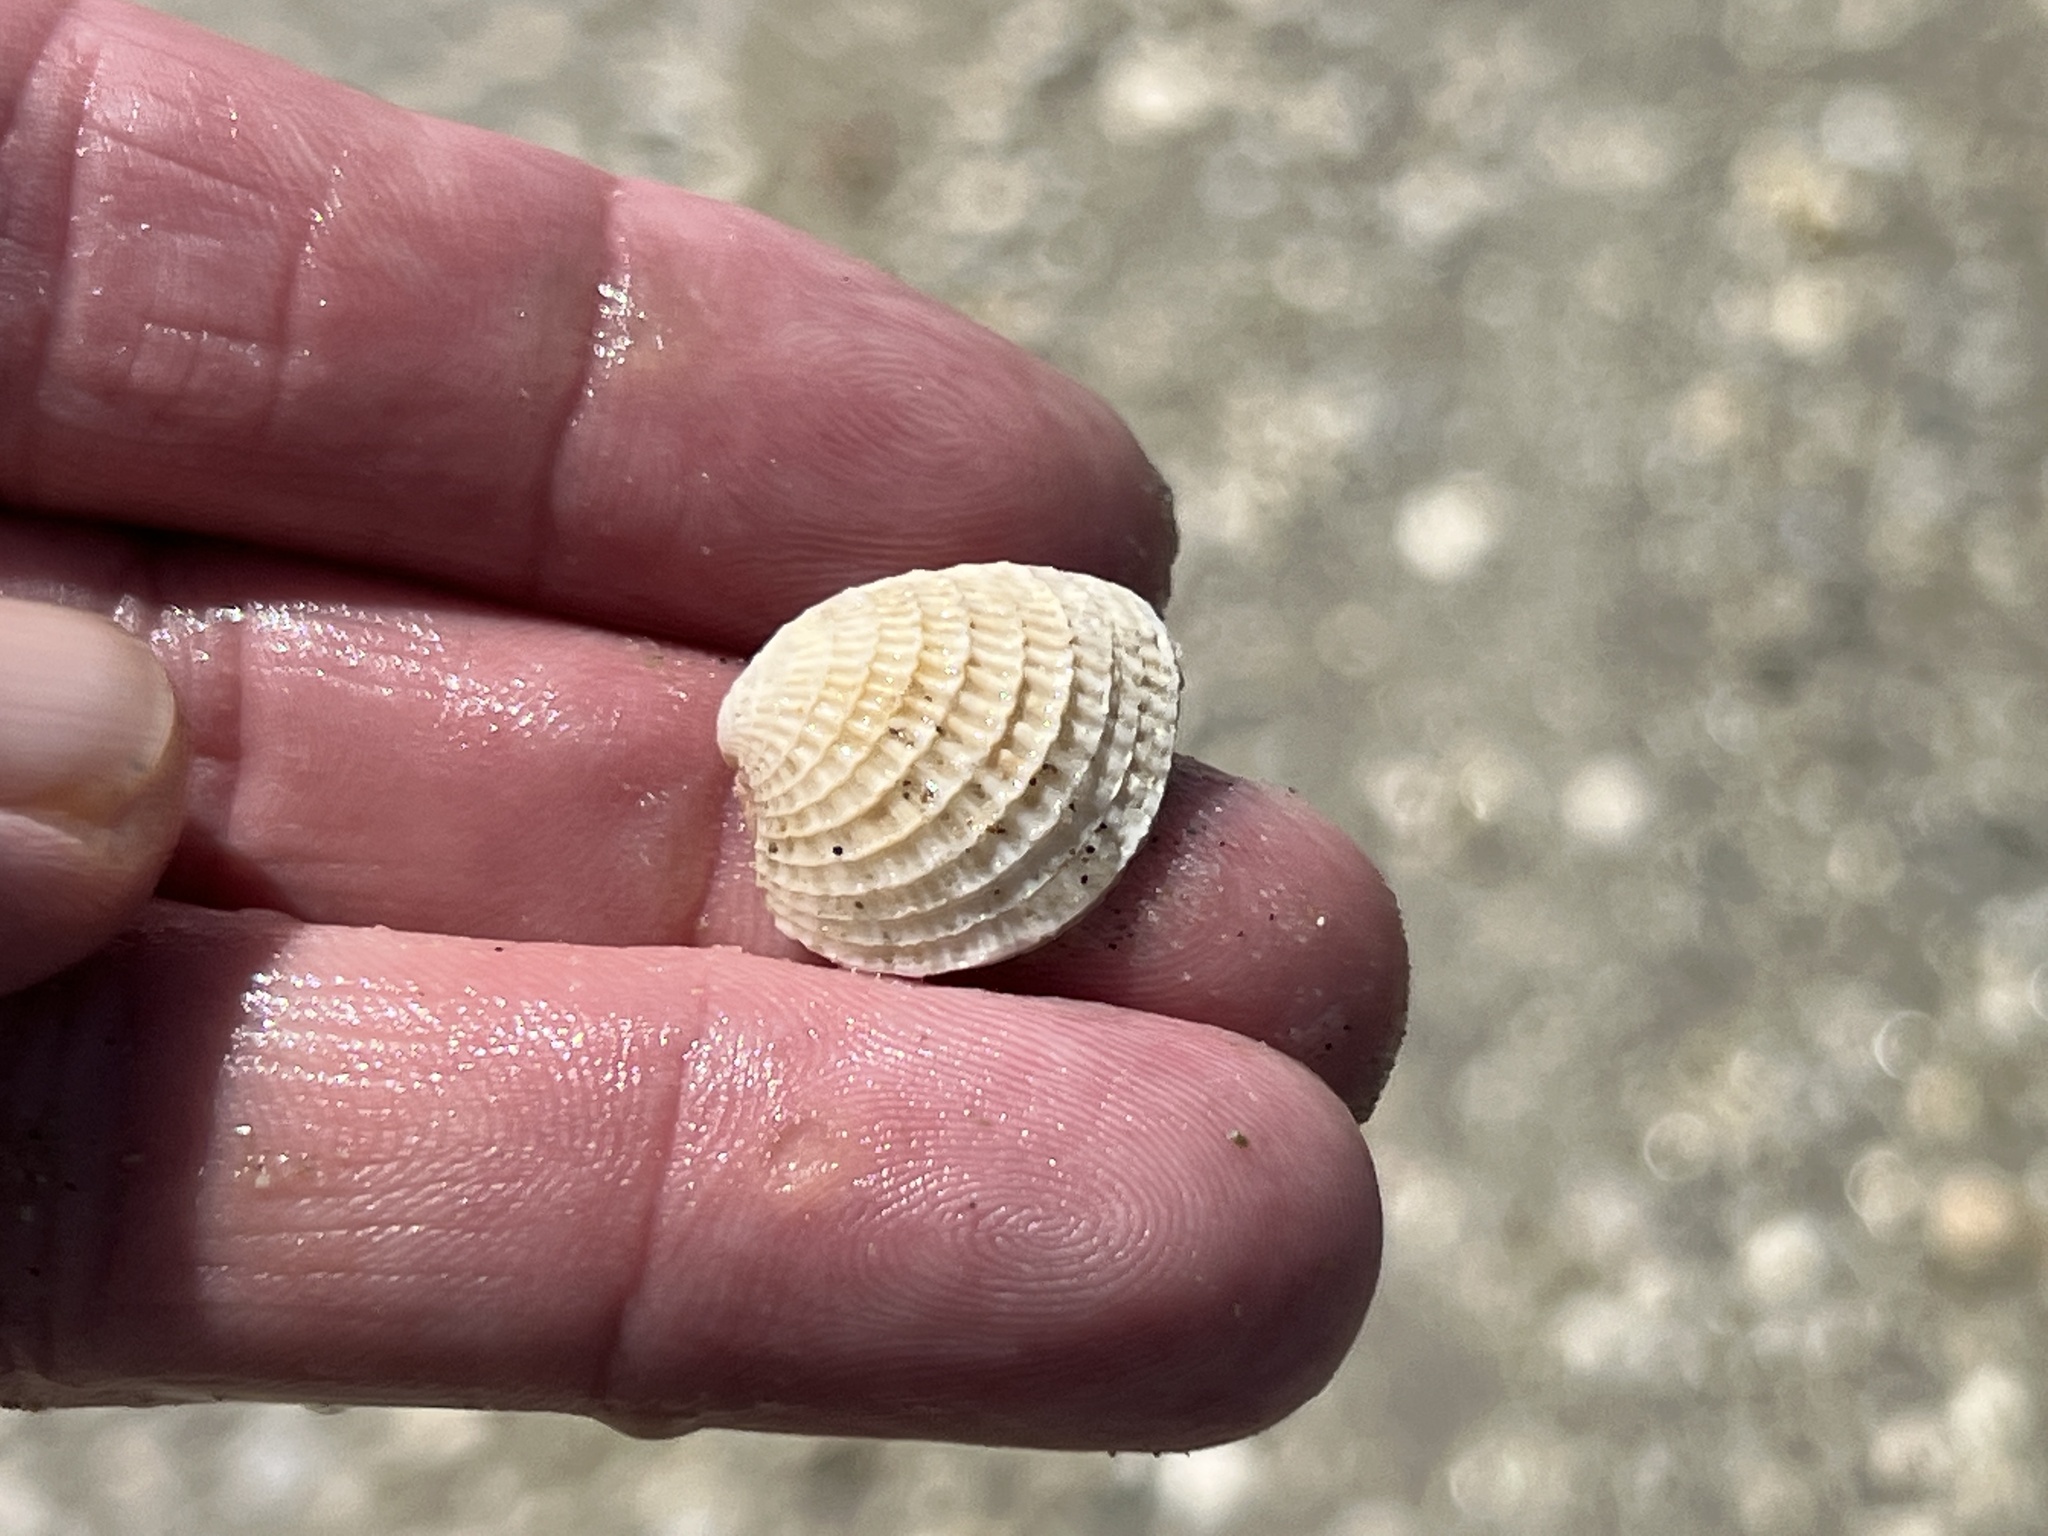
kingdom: Animalia
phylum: Mollusca
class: Bivalvia
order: Venerida
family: Veneridae
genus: Chione
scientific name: Chione elevata
